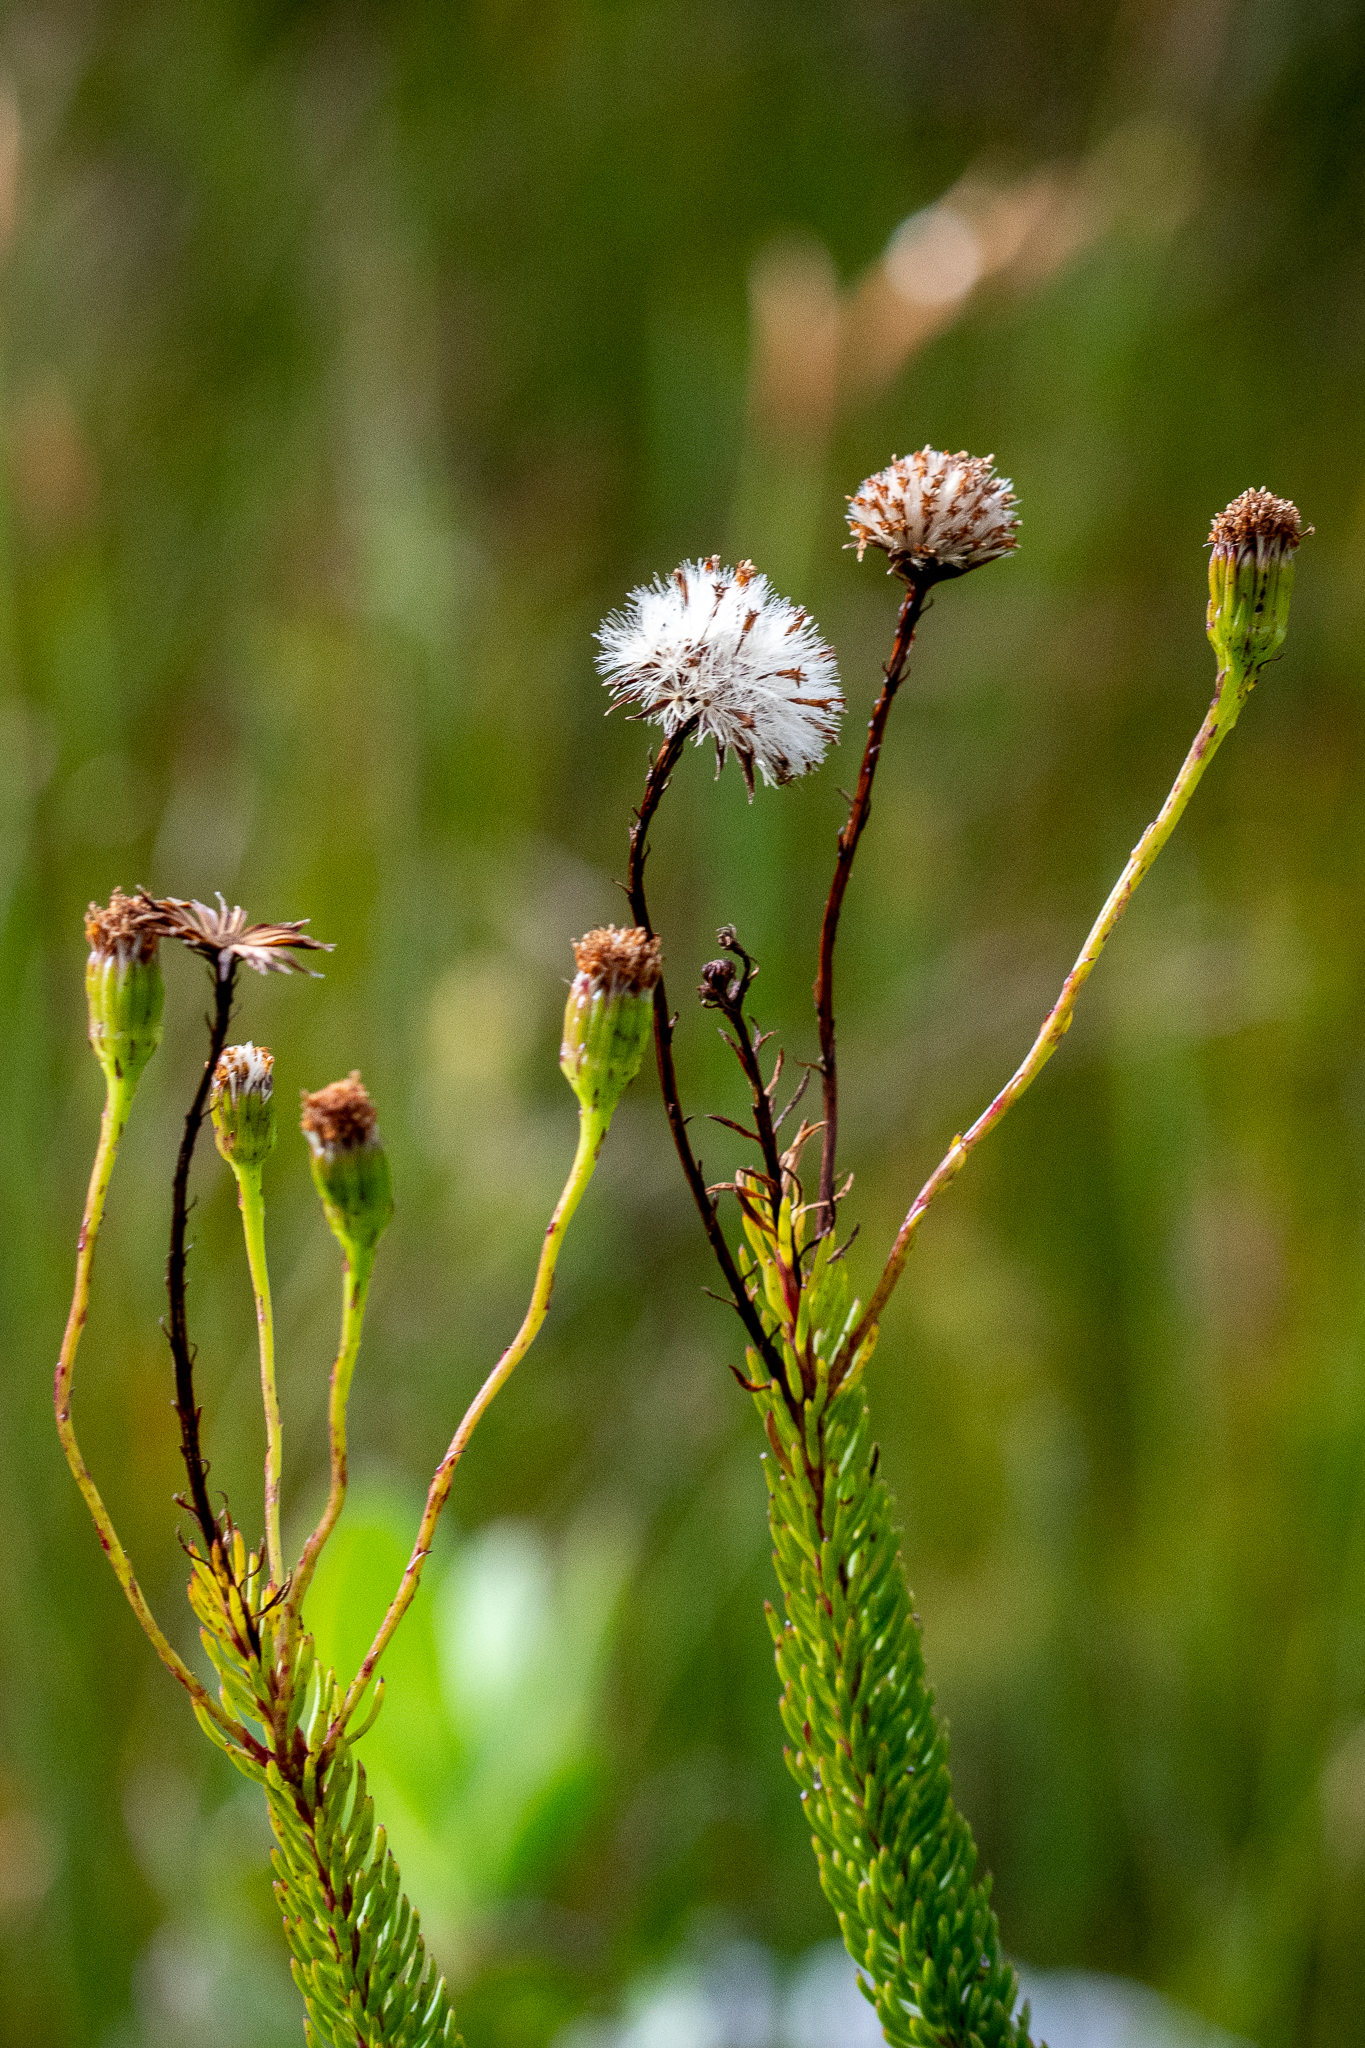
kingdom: Plantae
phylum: Tracheophyta
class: Magnoliopsida
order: Asterales
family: Asteraceae
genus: Senecio
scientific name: Senecio triqueter
